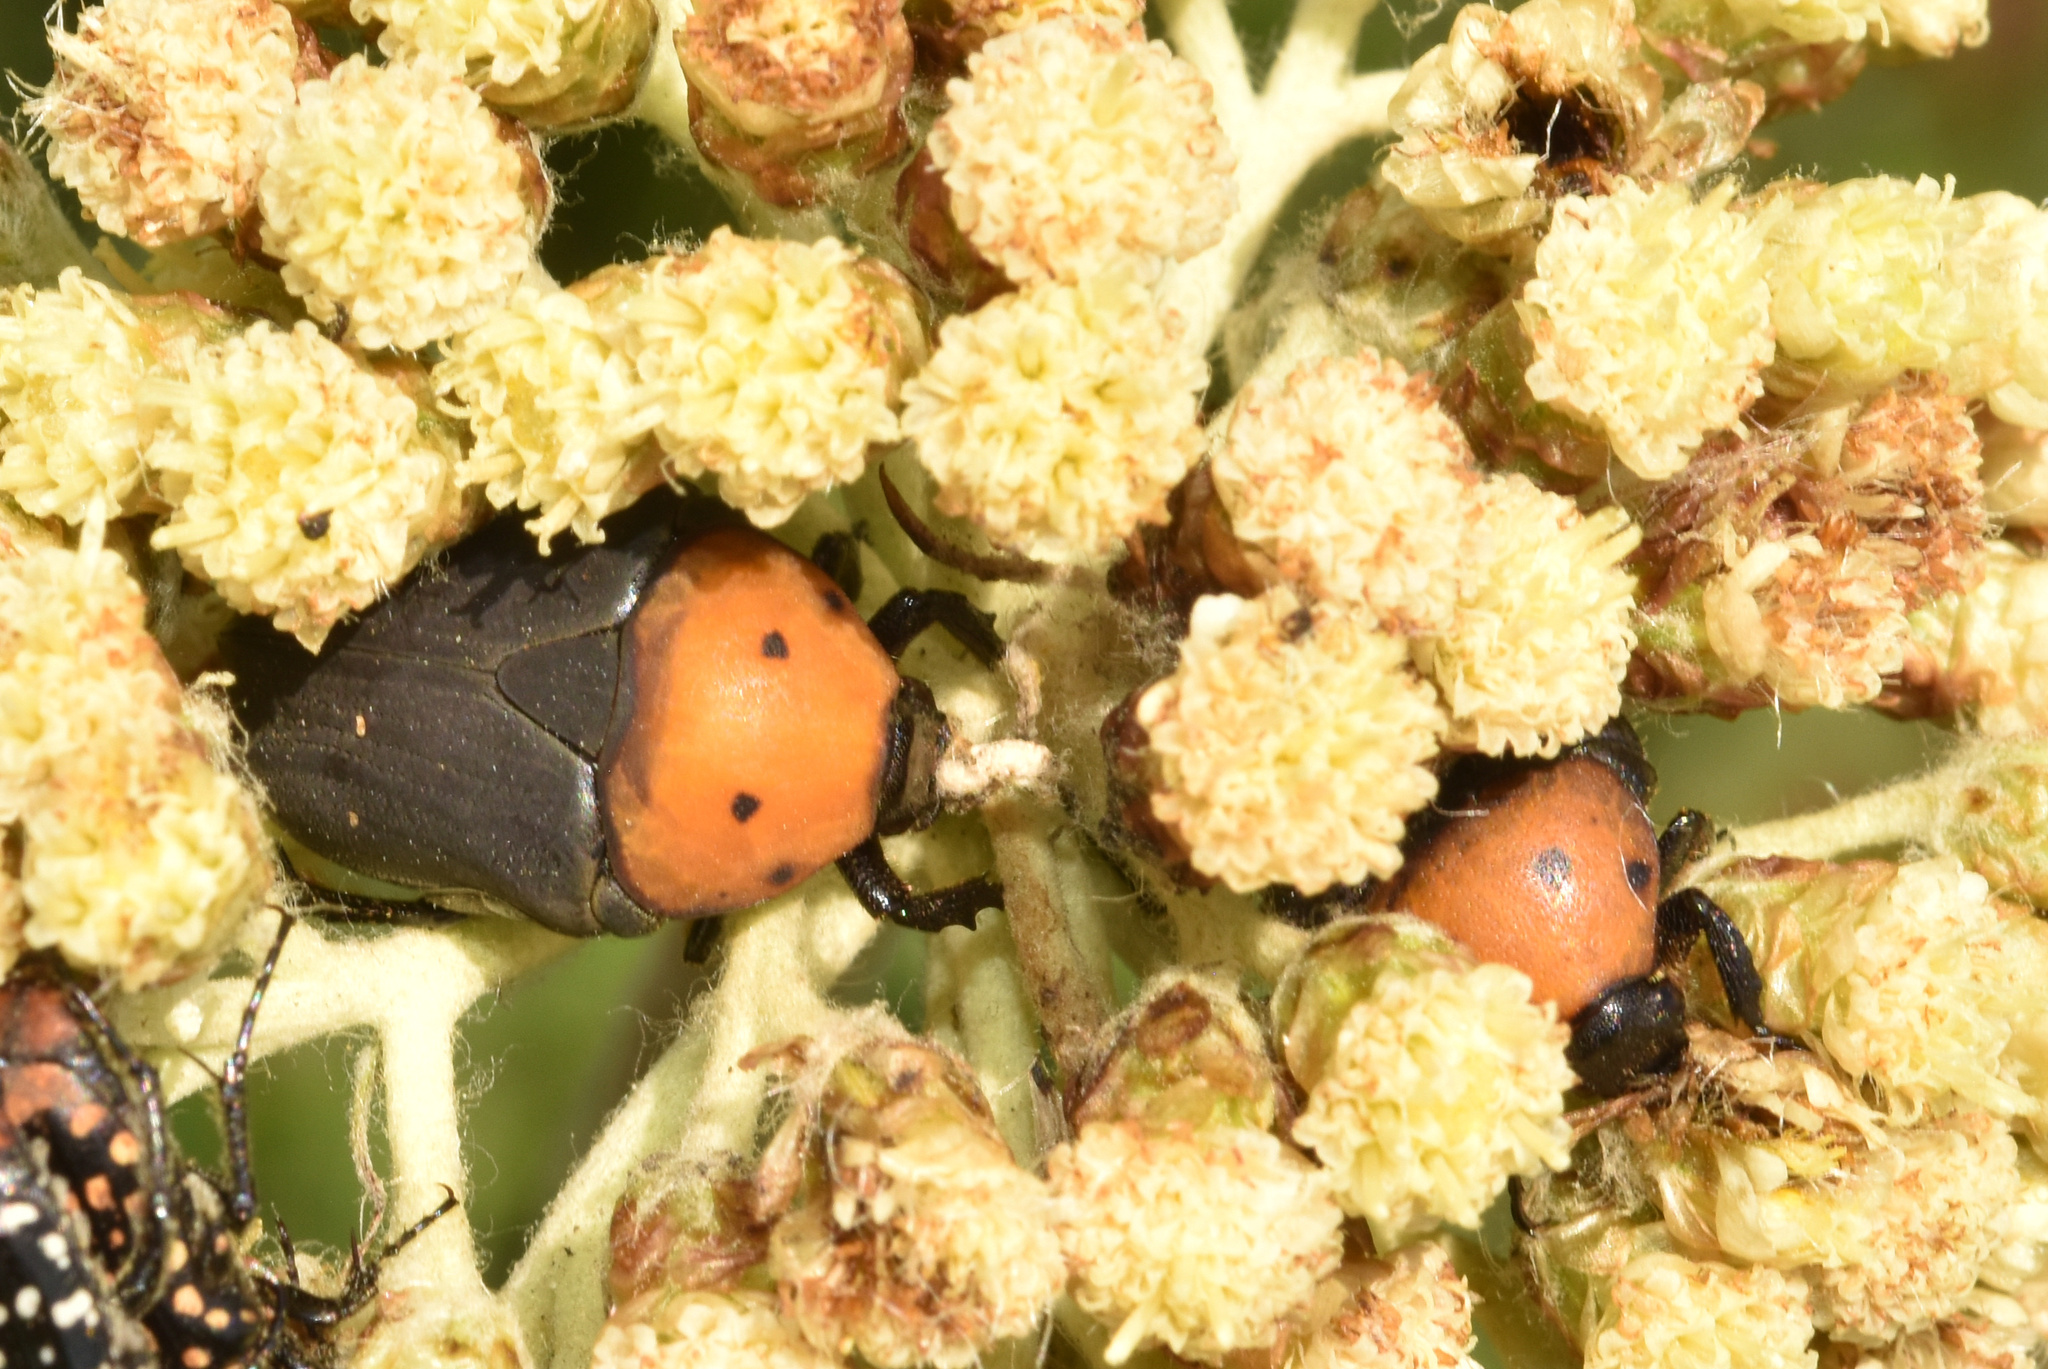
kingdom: Animalia
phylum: Arthropoda
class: Insecta
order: Coleoptera
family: Scarabaeidae
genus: Tephraea
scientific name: Tephraea dichroa
